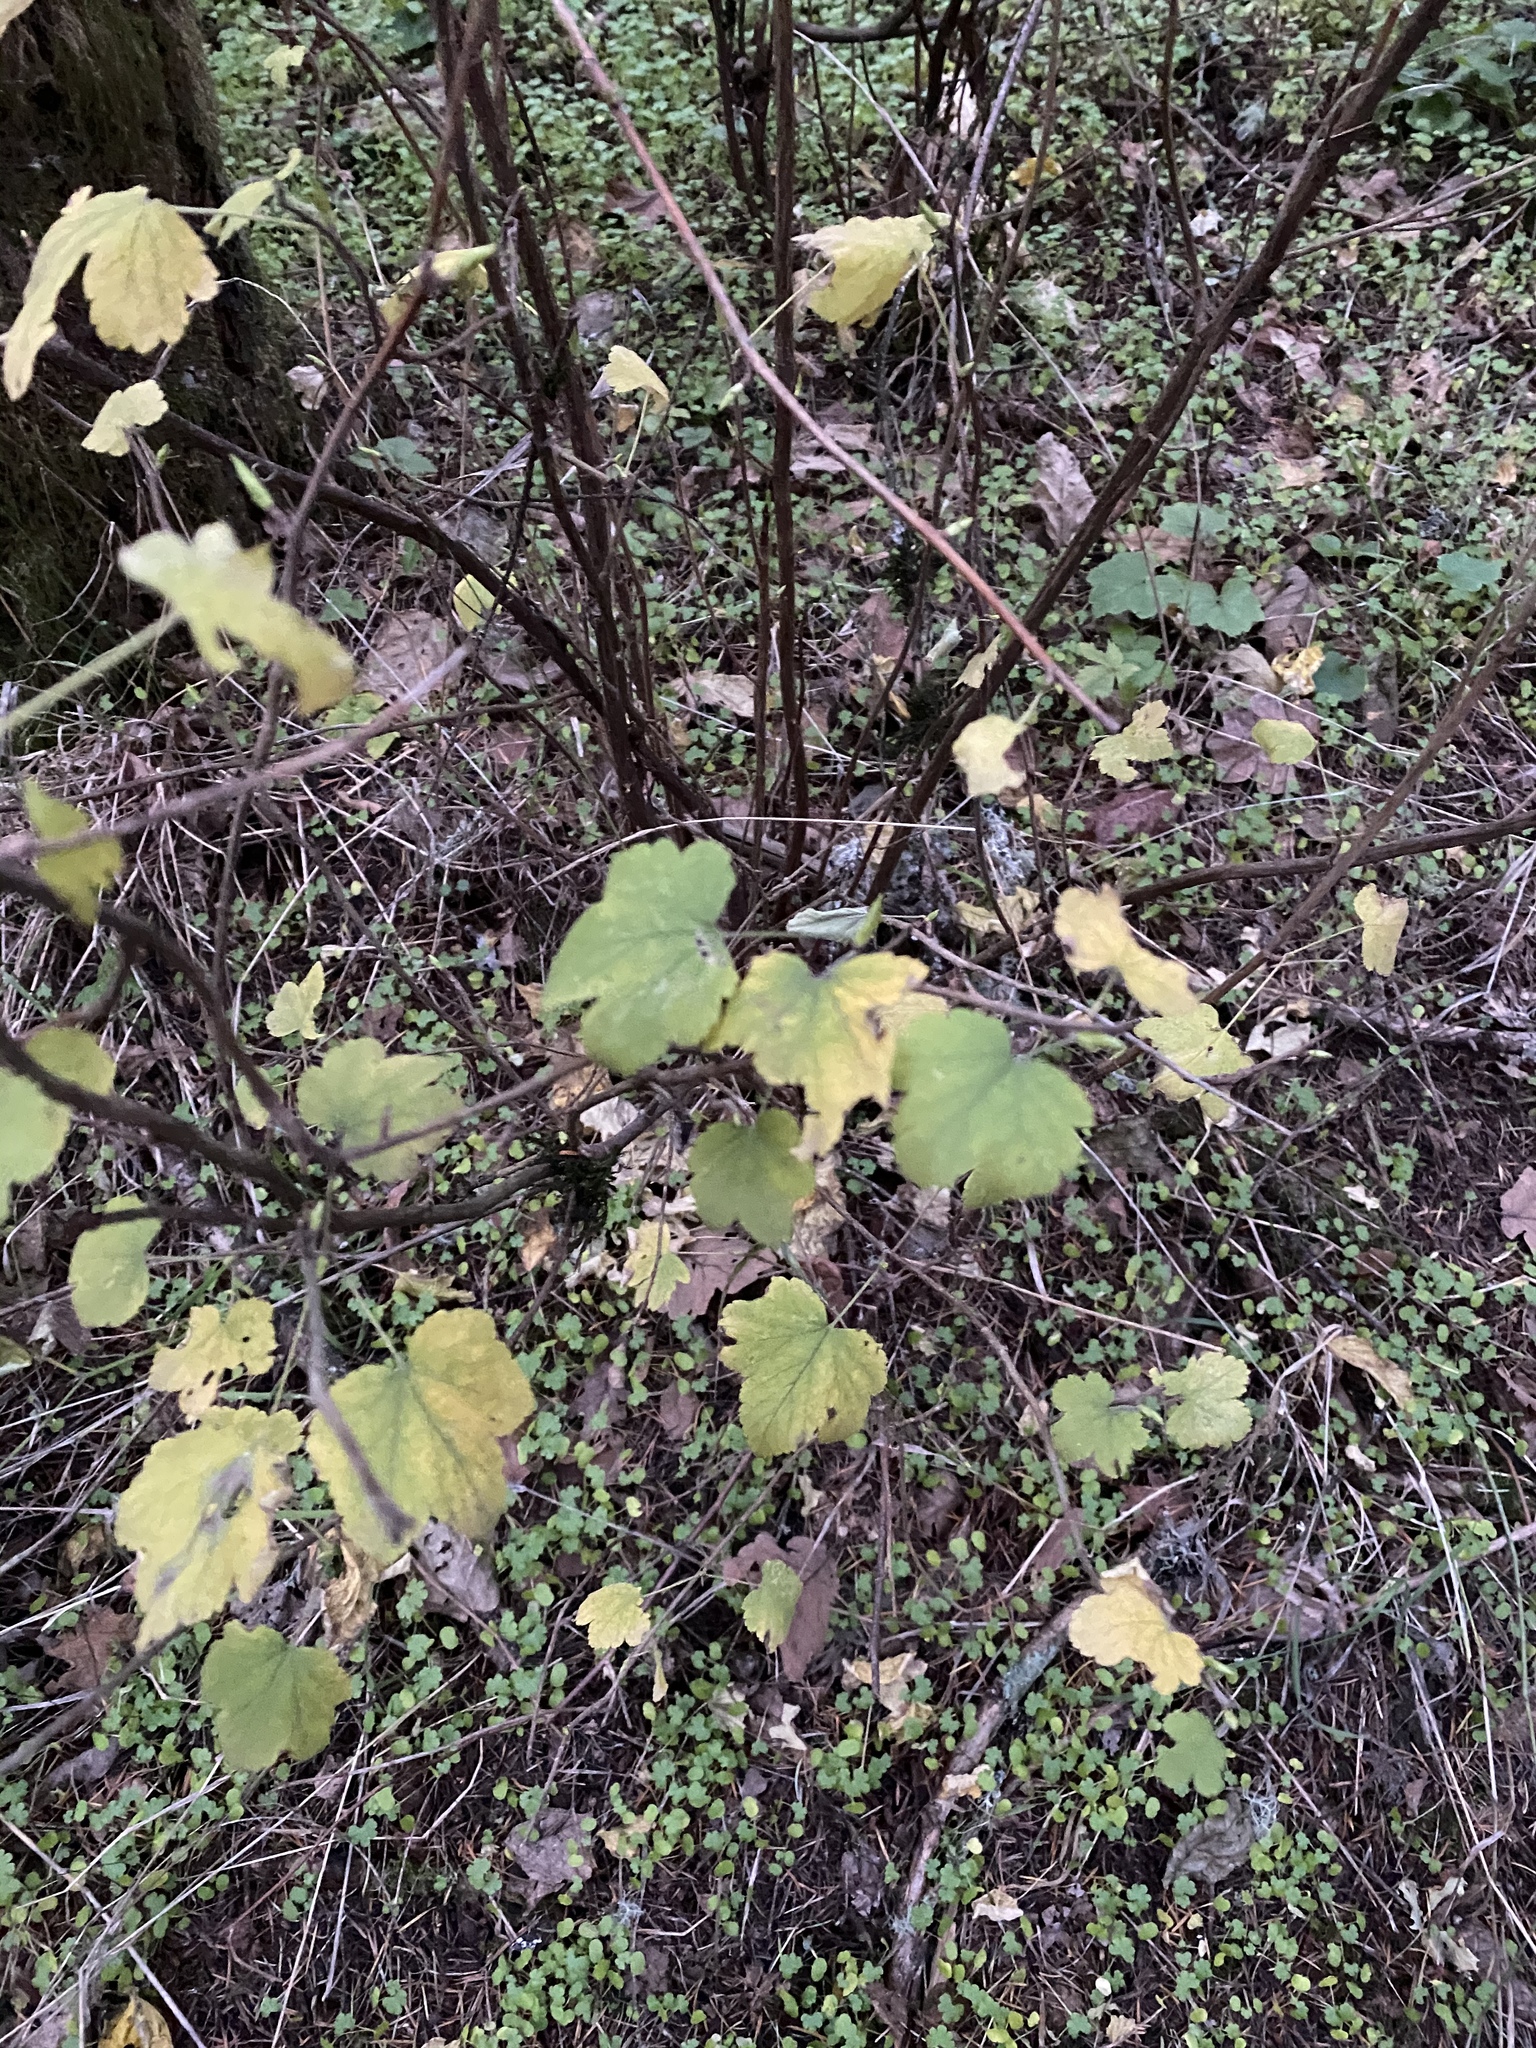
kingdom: Plantae
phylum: Tracheophyta
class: Magnoliopsida
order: Saxifragales
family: Grossulariaceae
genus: Ribes
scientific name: Ribes sanguineum
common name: Flowering currant
